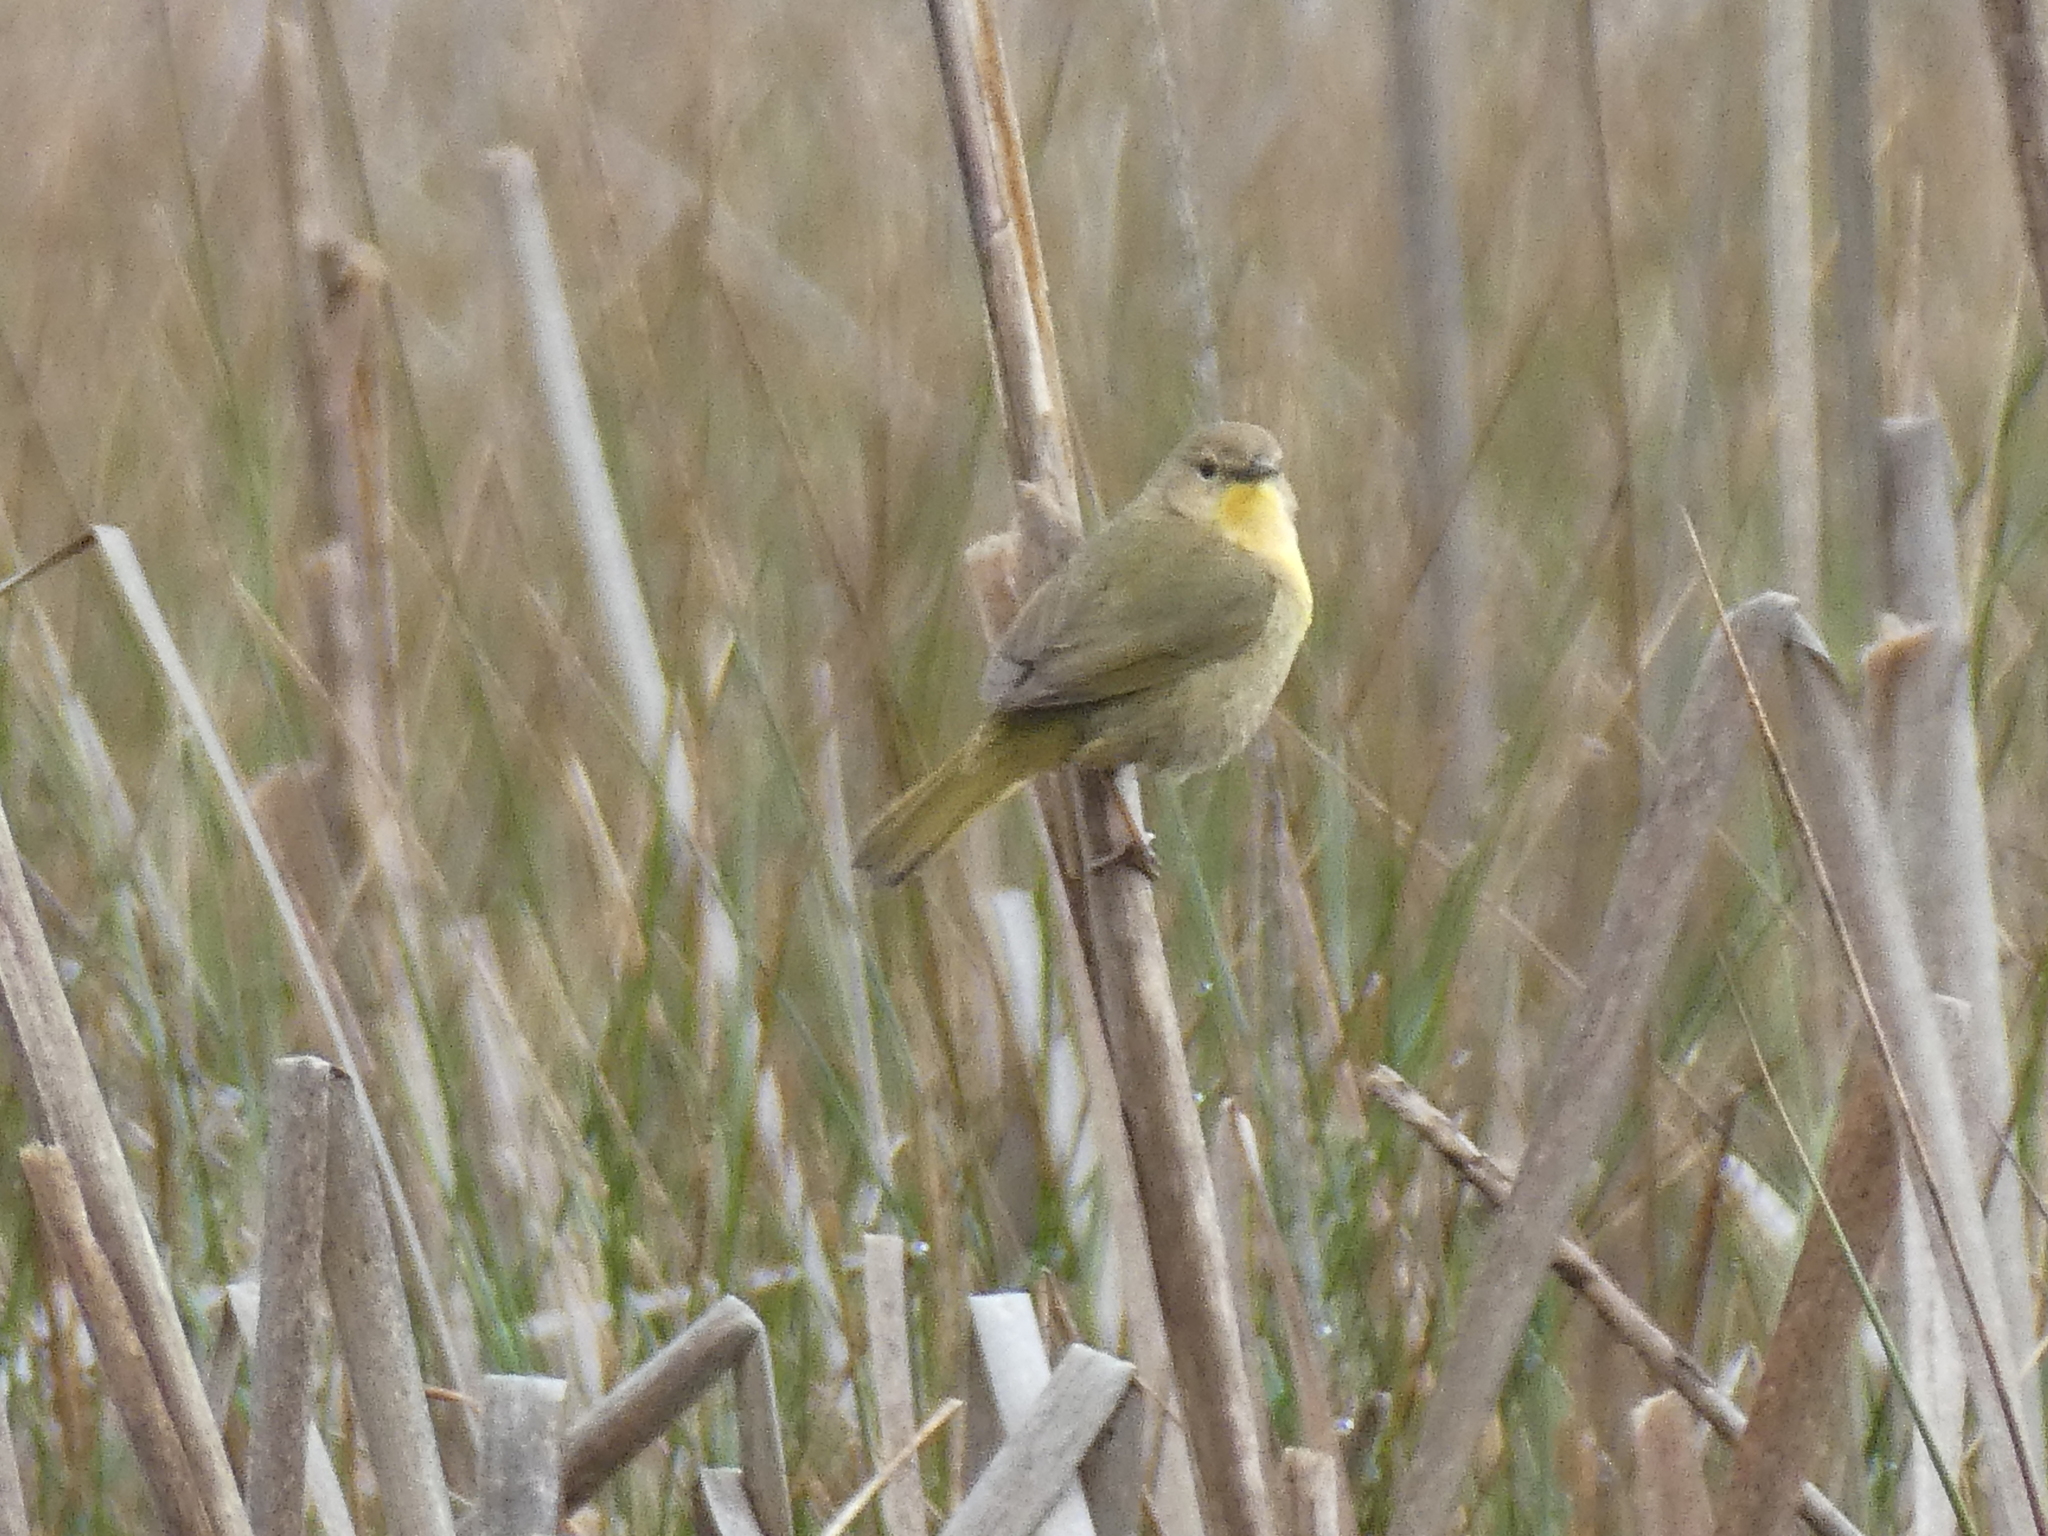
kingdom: Animalia
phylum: Chordata
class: Aves
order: Passeriformes
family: Parulidae
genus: Geothlypis
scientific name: Geothlypis trichas
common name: Common yellowthroat
